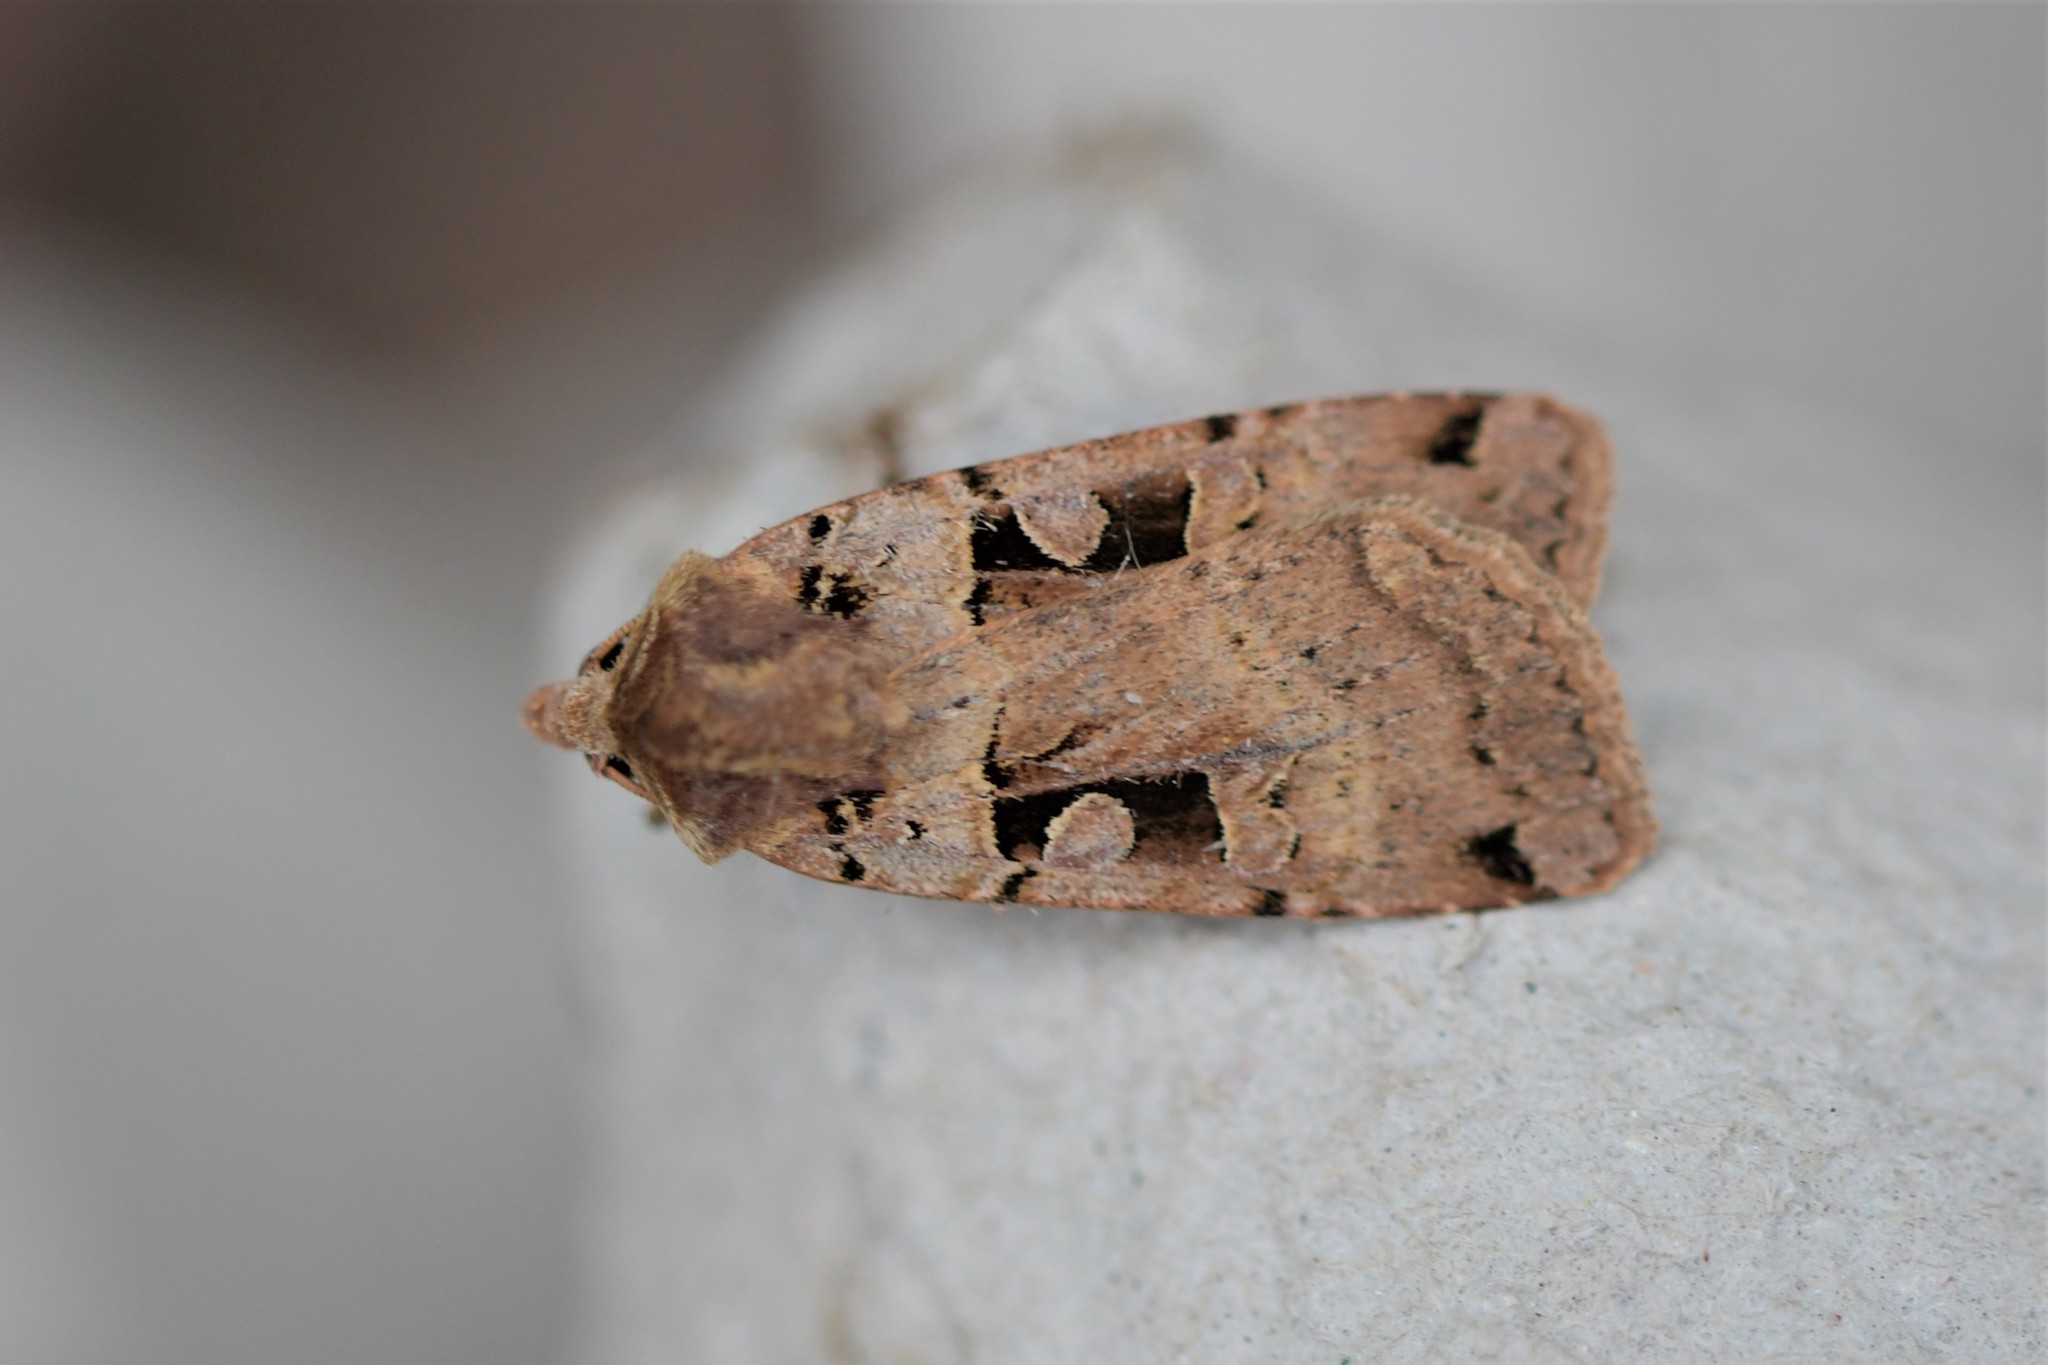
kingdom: Animalia
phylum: Arthropoda
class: Insecta
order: Lepidoptera
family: Noctuidae
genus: Xestia
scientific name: Xestia triangulum
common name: Double square-spot
